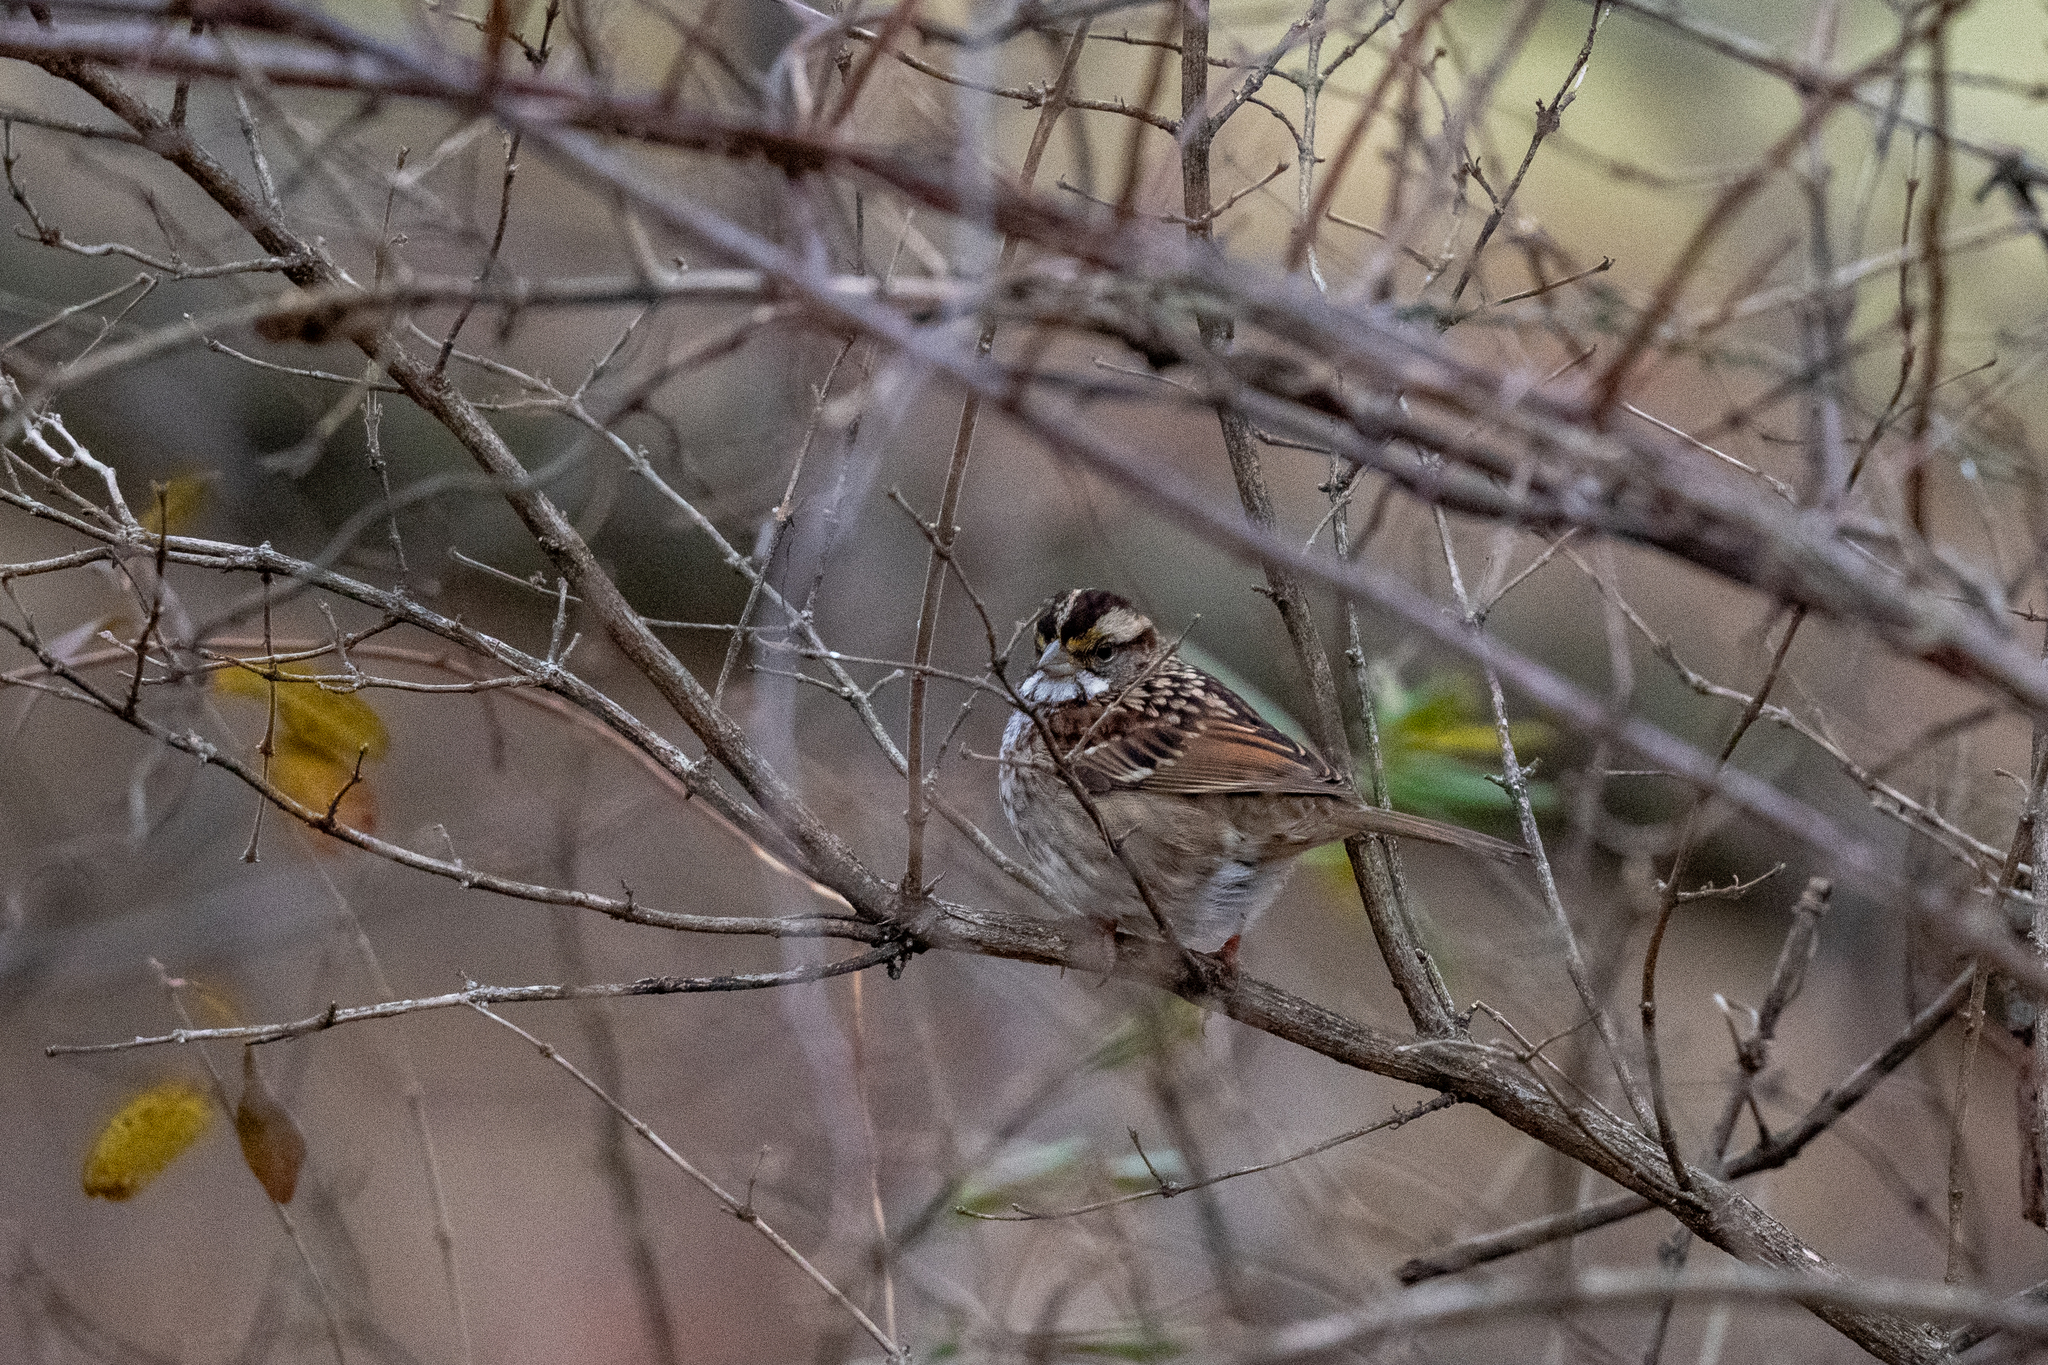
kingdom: Animalia
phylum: Chordata
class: Aves
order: Passeriformes
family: Passerellidae
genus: Zonotrichia
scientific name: Zonotrichia albicollis
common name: White-throated sparrow
